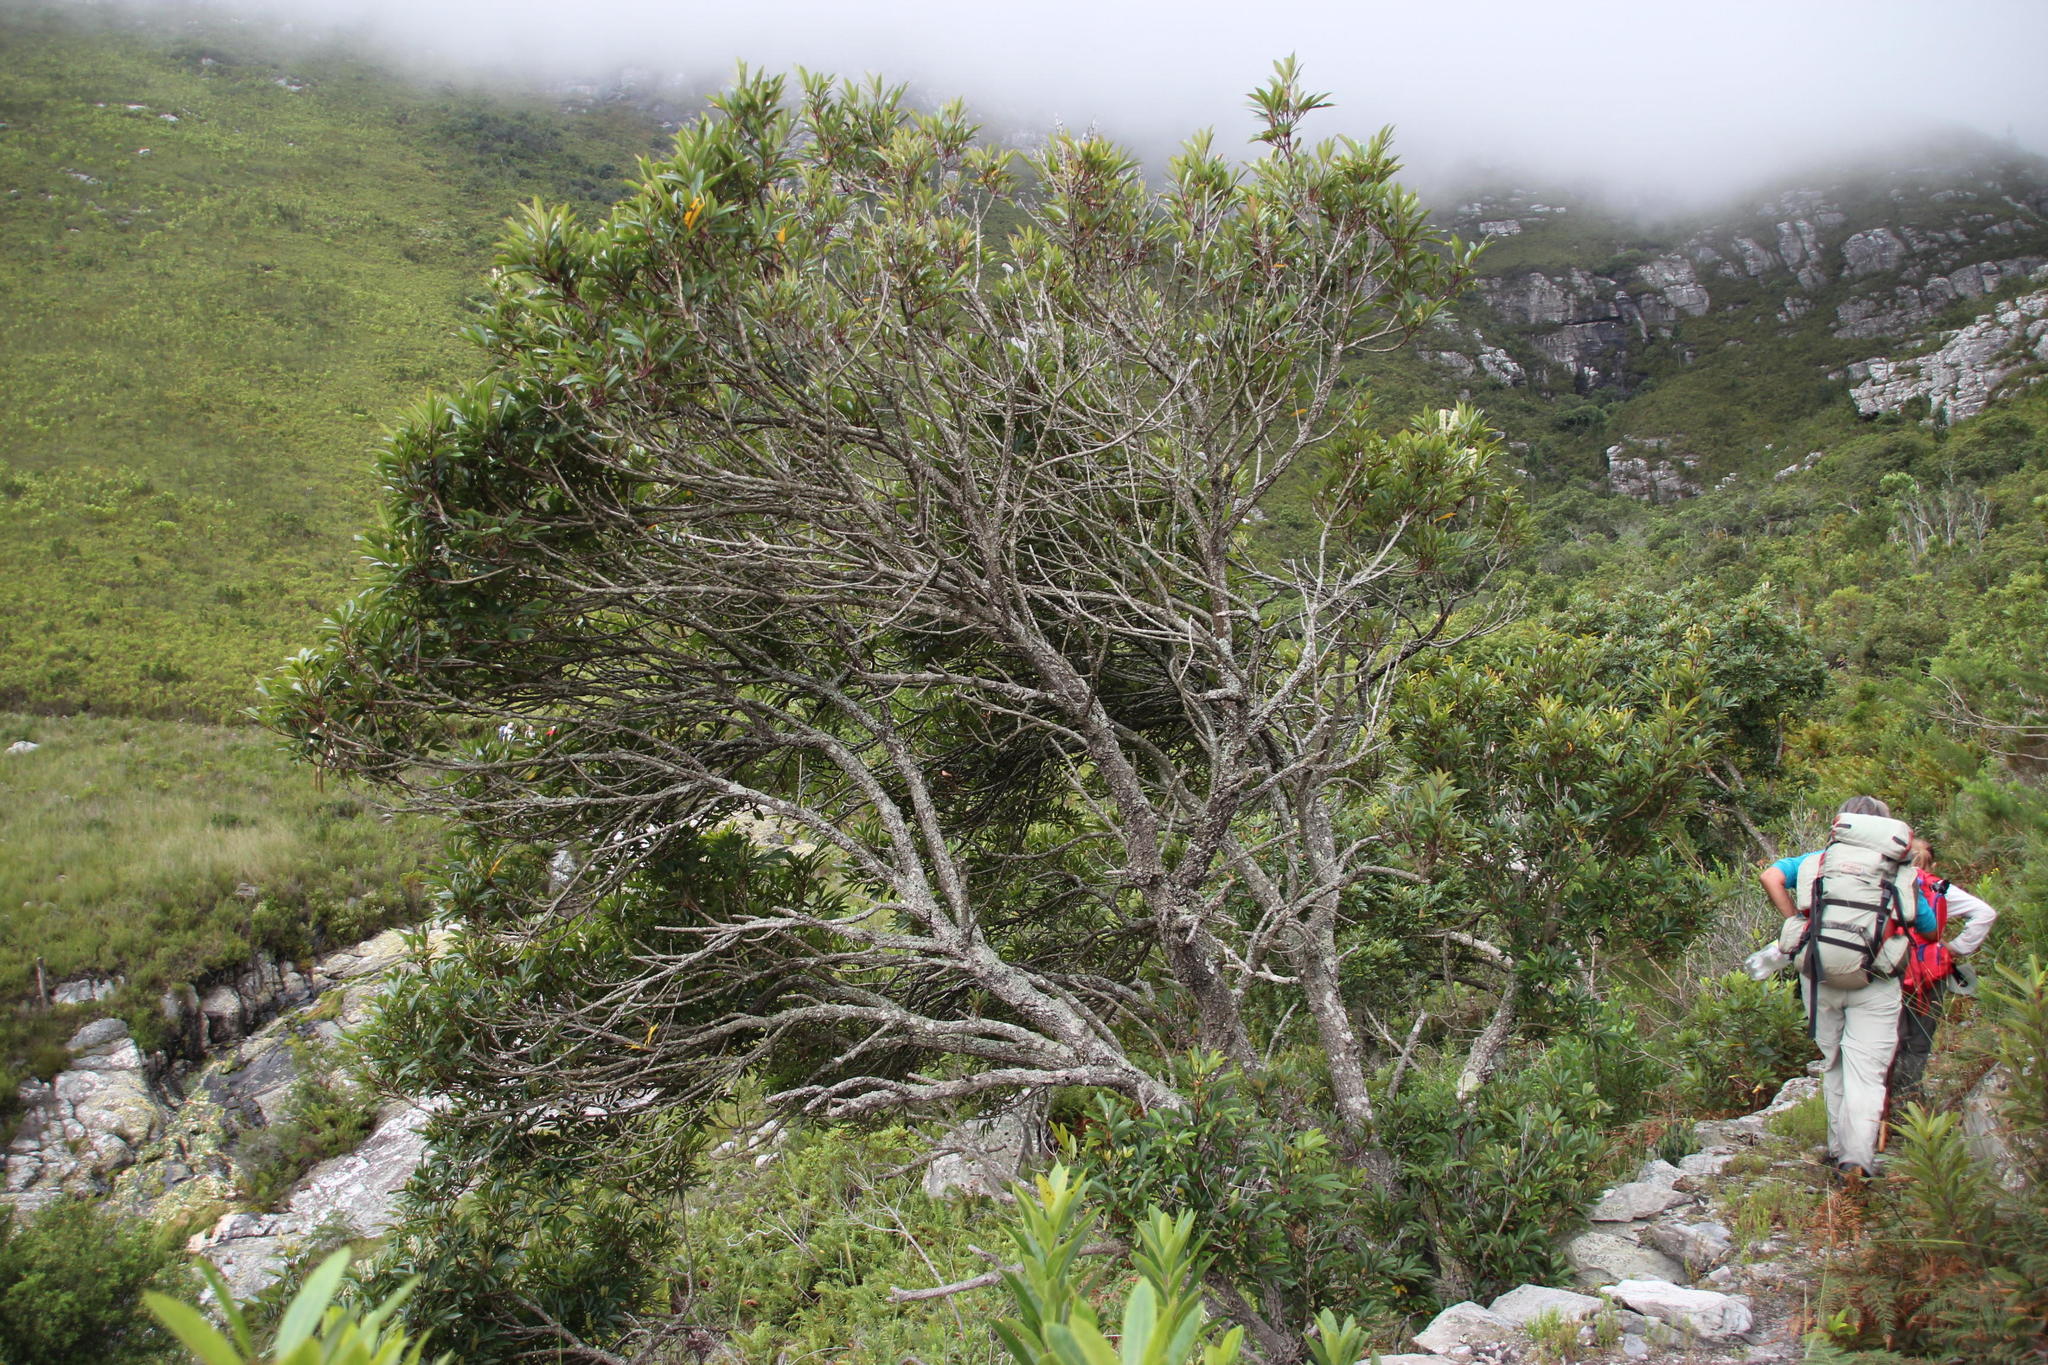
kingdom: Plantae
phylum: Tracheophyta
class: Magnoliopsida
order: Oxalidales
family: Cunoniaceae
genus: Cunonia
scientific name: Cunonia capensis
